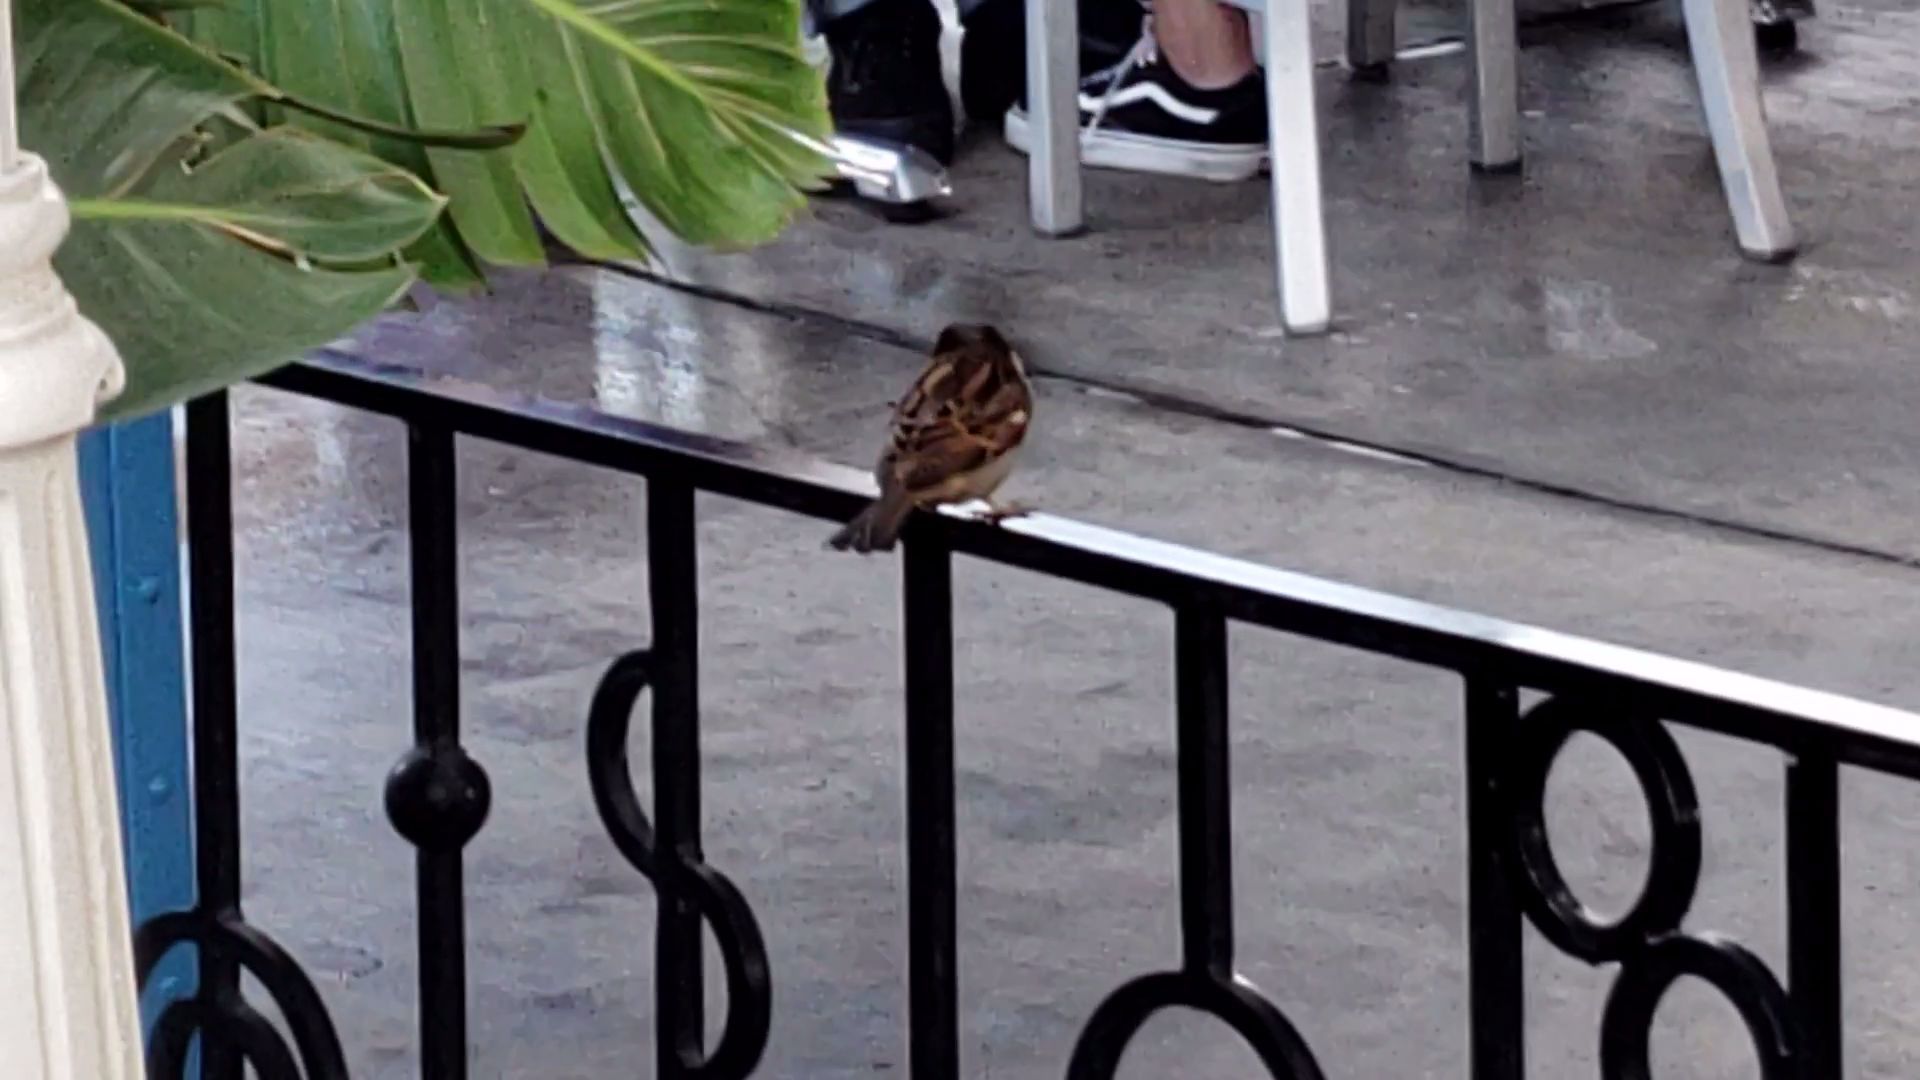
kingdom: Animalia
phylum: Chordata
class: Aves
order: Passeriformes
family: Passeridae
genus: Passer
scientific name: Passer domesticus
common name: House sparrow
